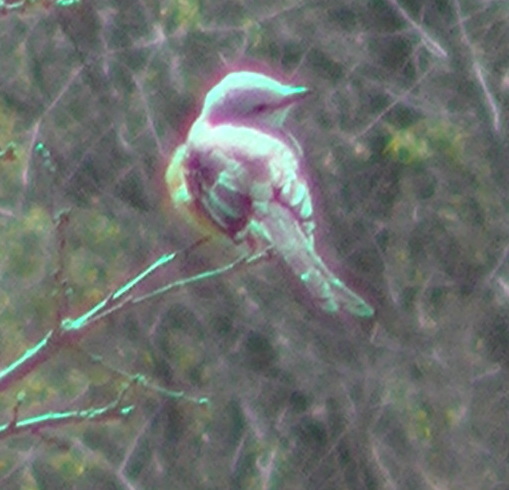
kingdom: Animalia
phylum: Chordata
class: Aves
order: Passeriformes
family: Tyrannidae
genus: Tyrannus
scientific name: Tyrannus forficatus
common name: Scissor-tailed flycatcher
